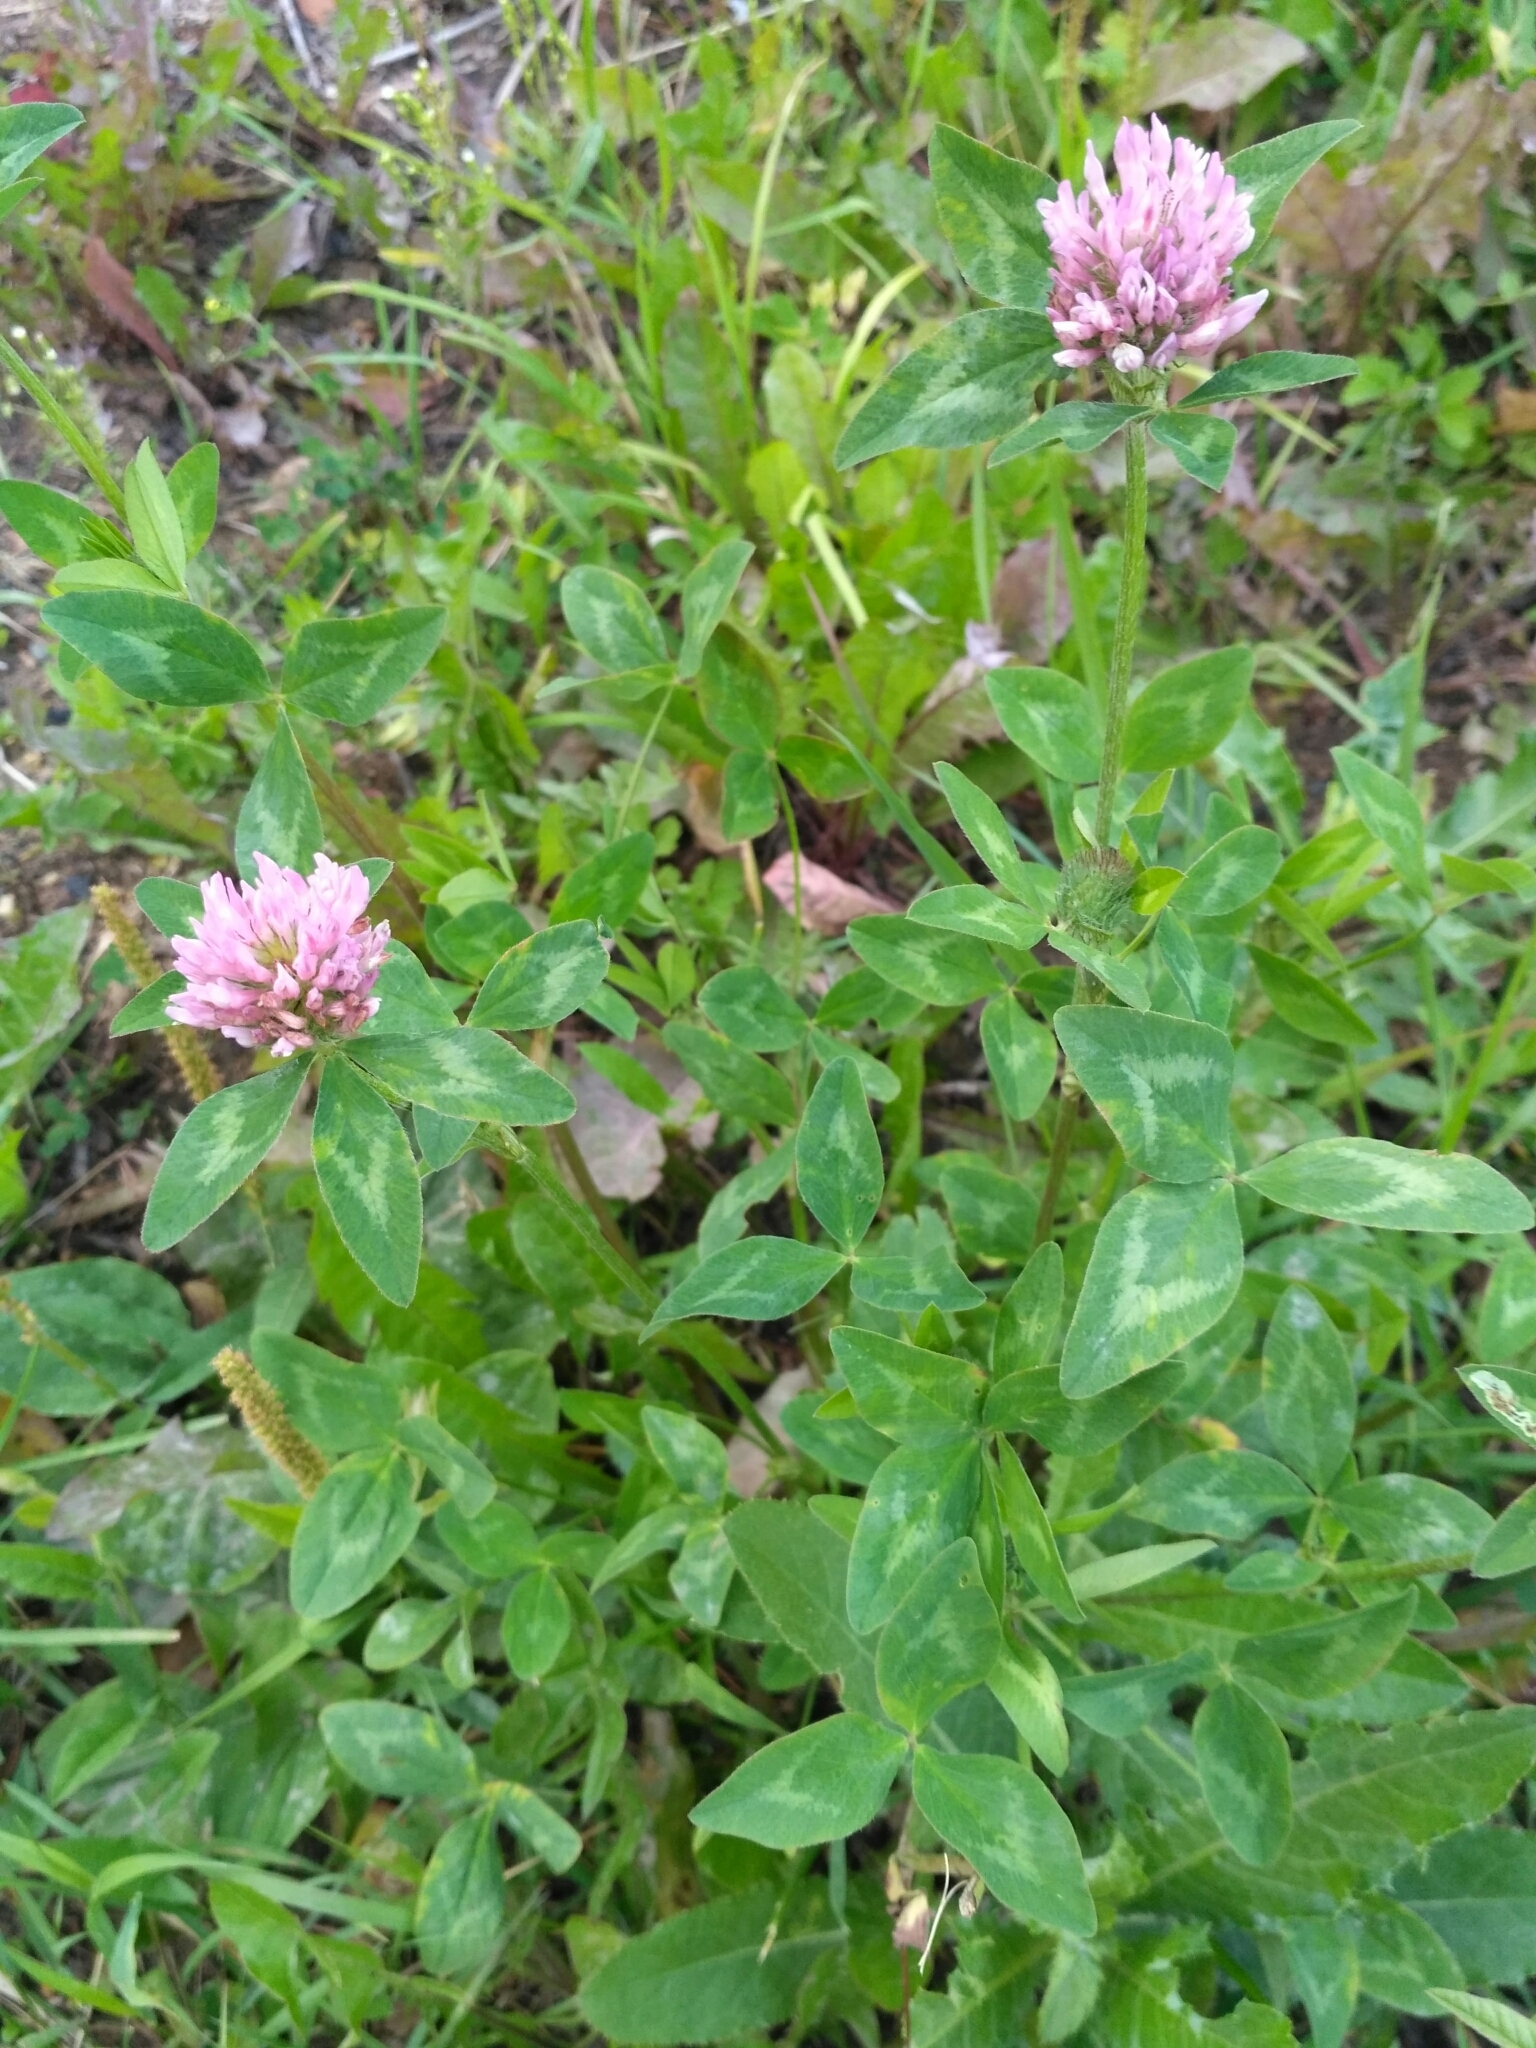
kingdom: Plantae
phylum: Tracheophyta
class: Magnoliopsida
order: Fabales
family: Fabaceae
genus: Trifolium
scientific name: Trifolium pratense
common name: Red clover
